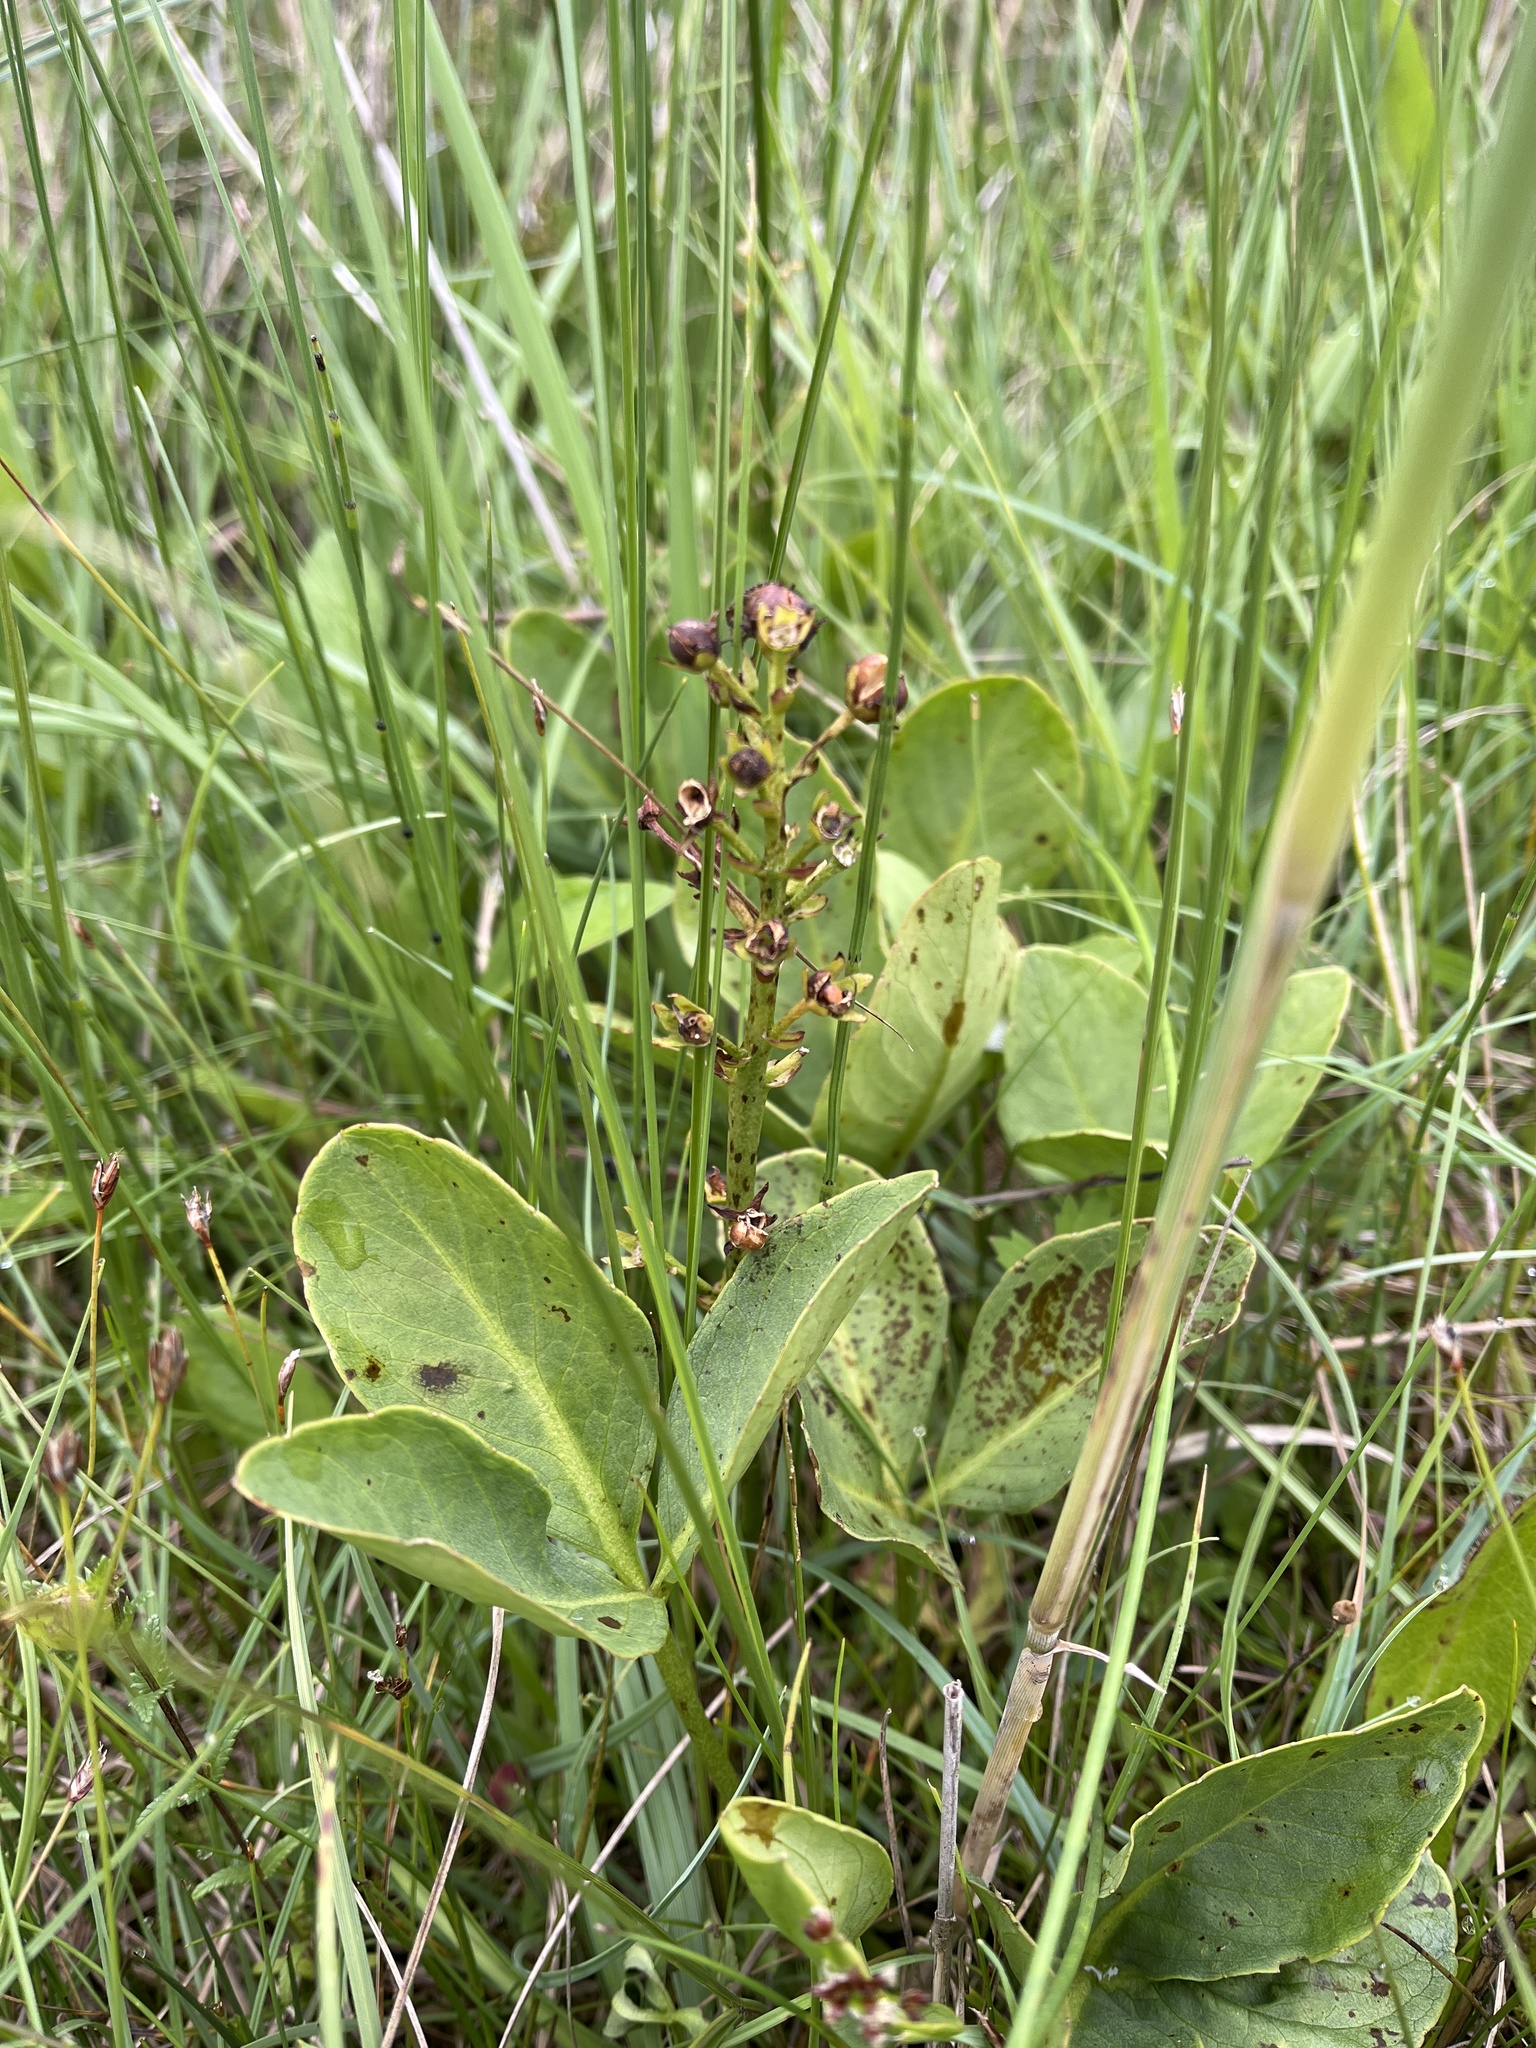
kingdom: Plantae
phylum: Tracheophyta
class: Magnoliopsida
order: Asterales
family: Menyanthaceae
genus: Menyanthes
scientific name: Menyanthes trifoliata
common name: Bogbean
